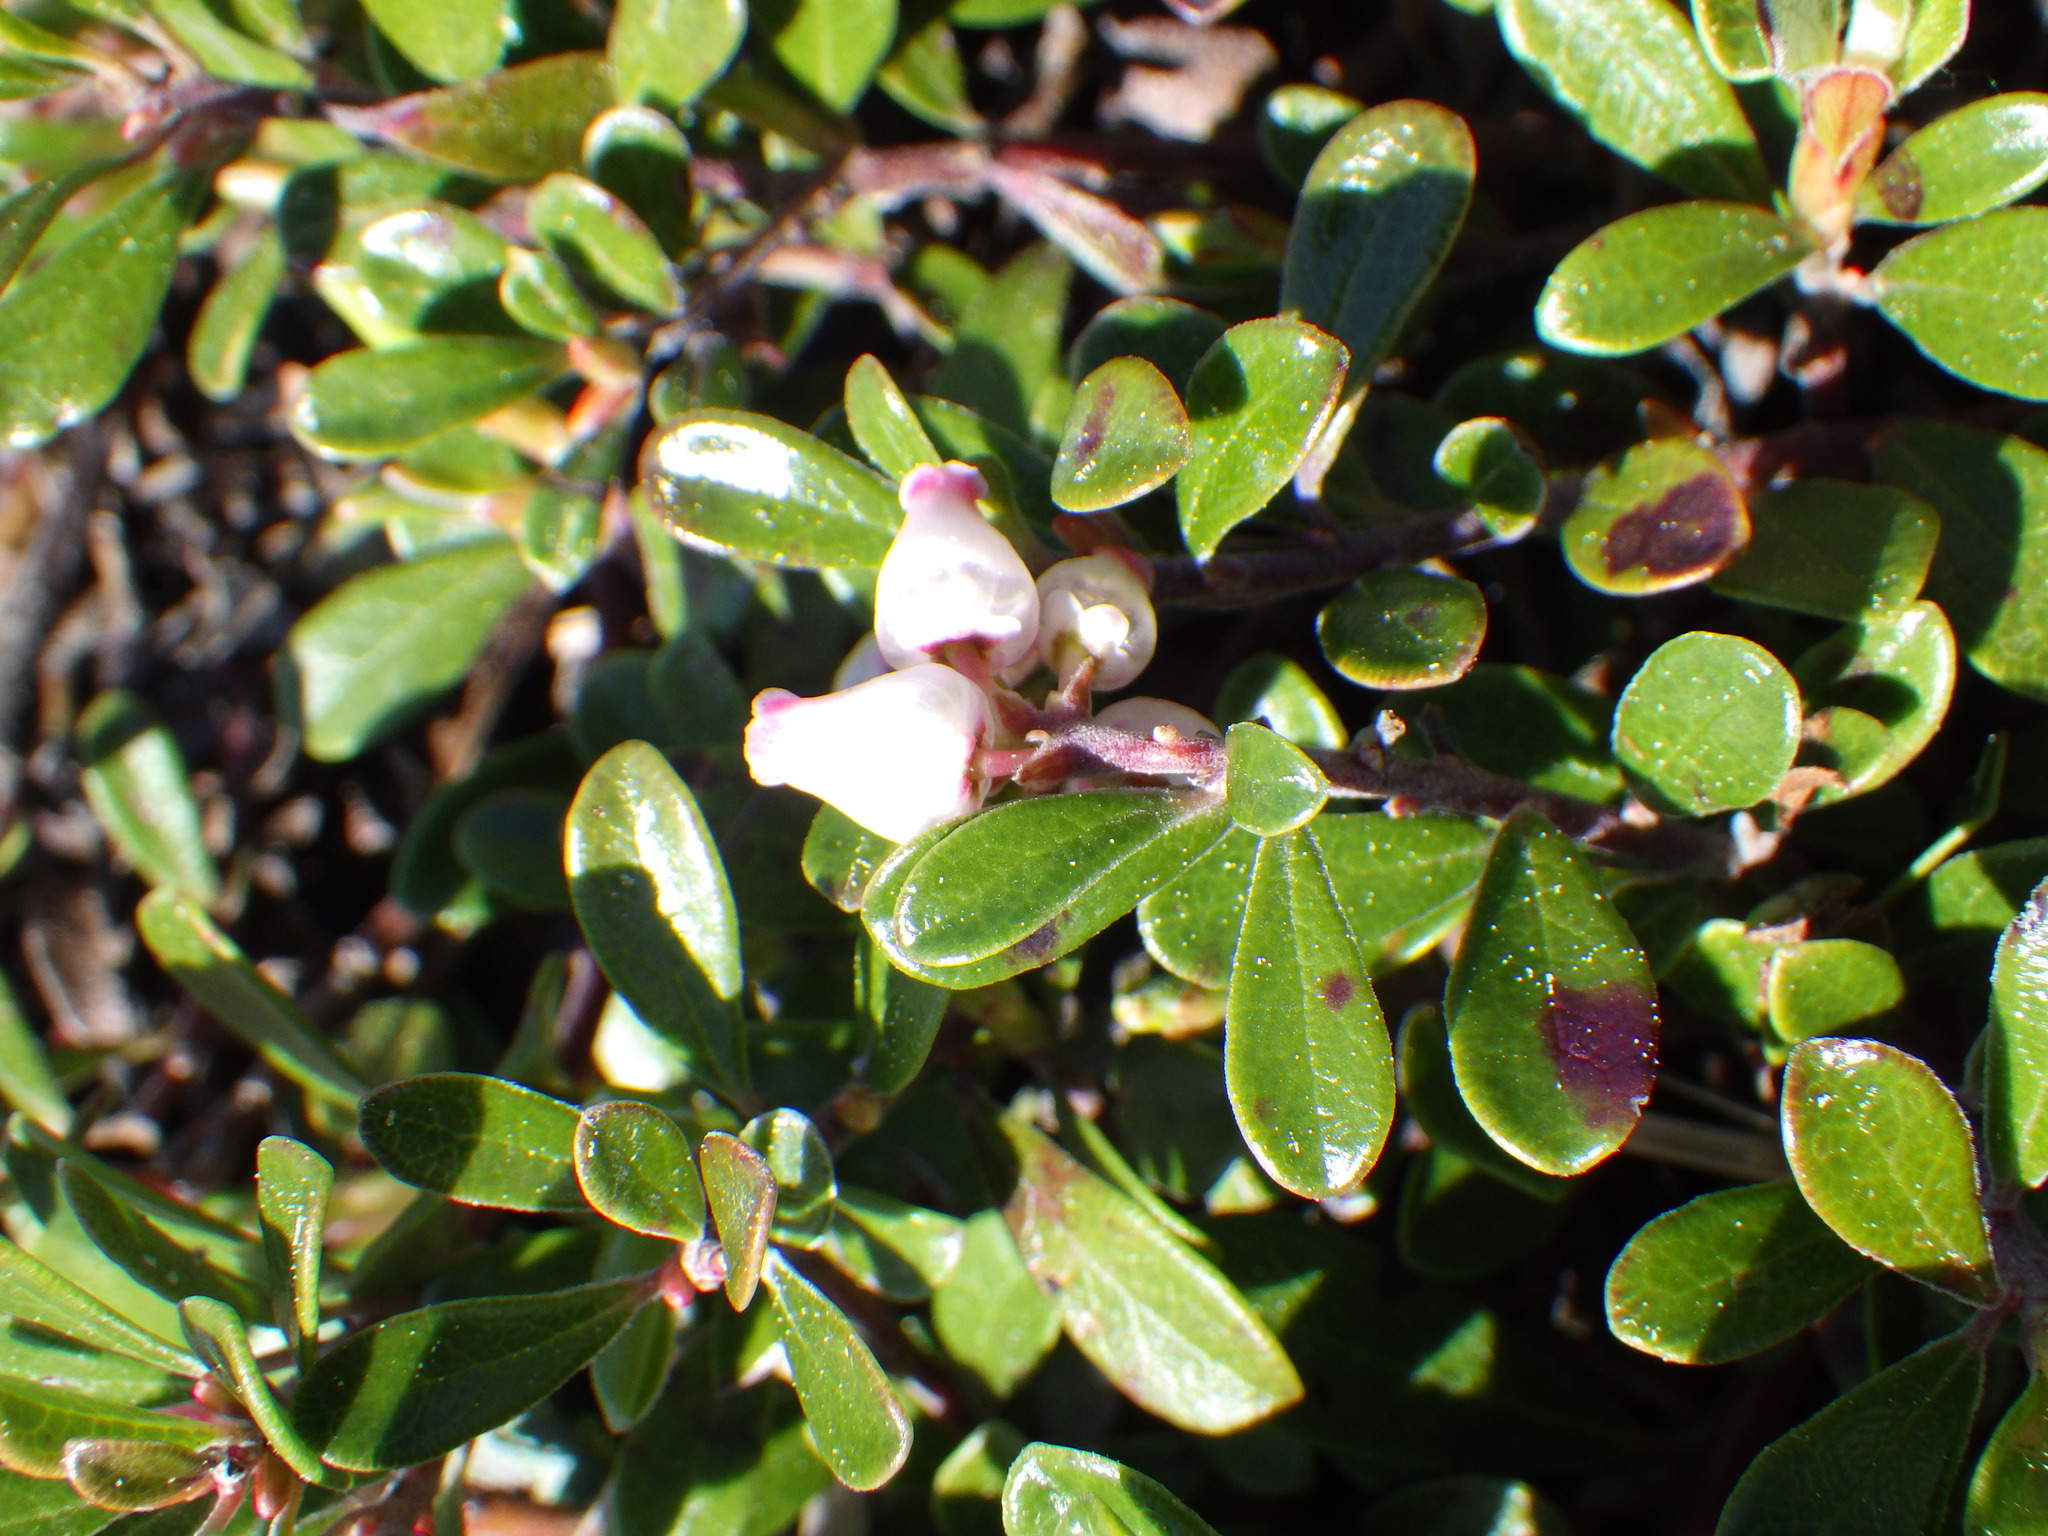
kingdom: Plantae
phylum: Tracheophyta
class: Magnoliopsida
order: Ericales
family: Ericaceae
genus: Arctostaphylos
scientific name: Arctostaphylos uva-ursi
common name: Bearberry
